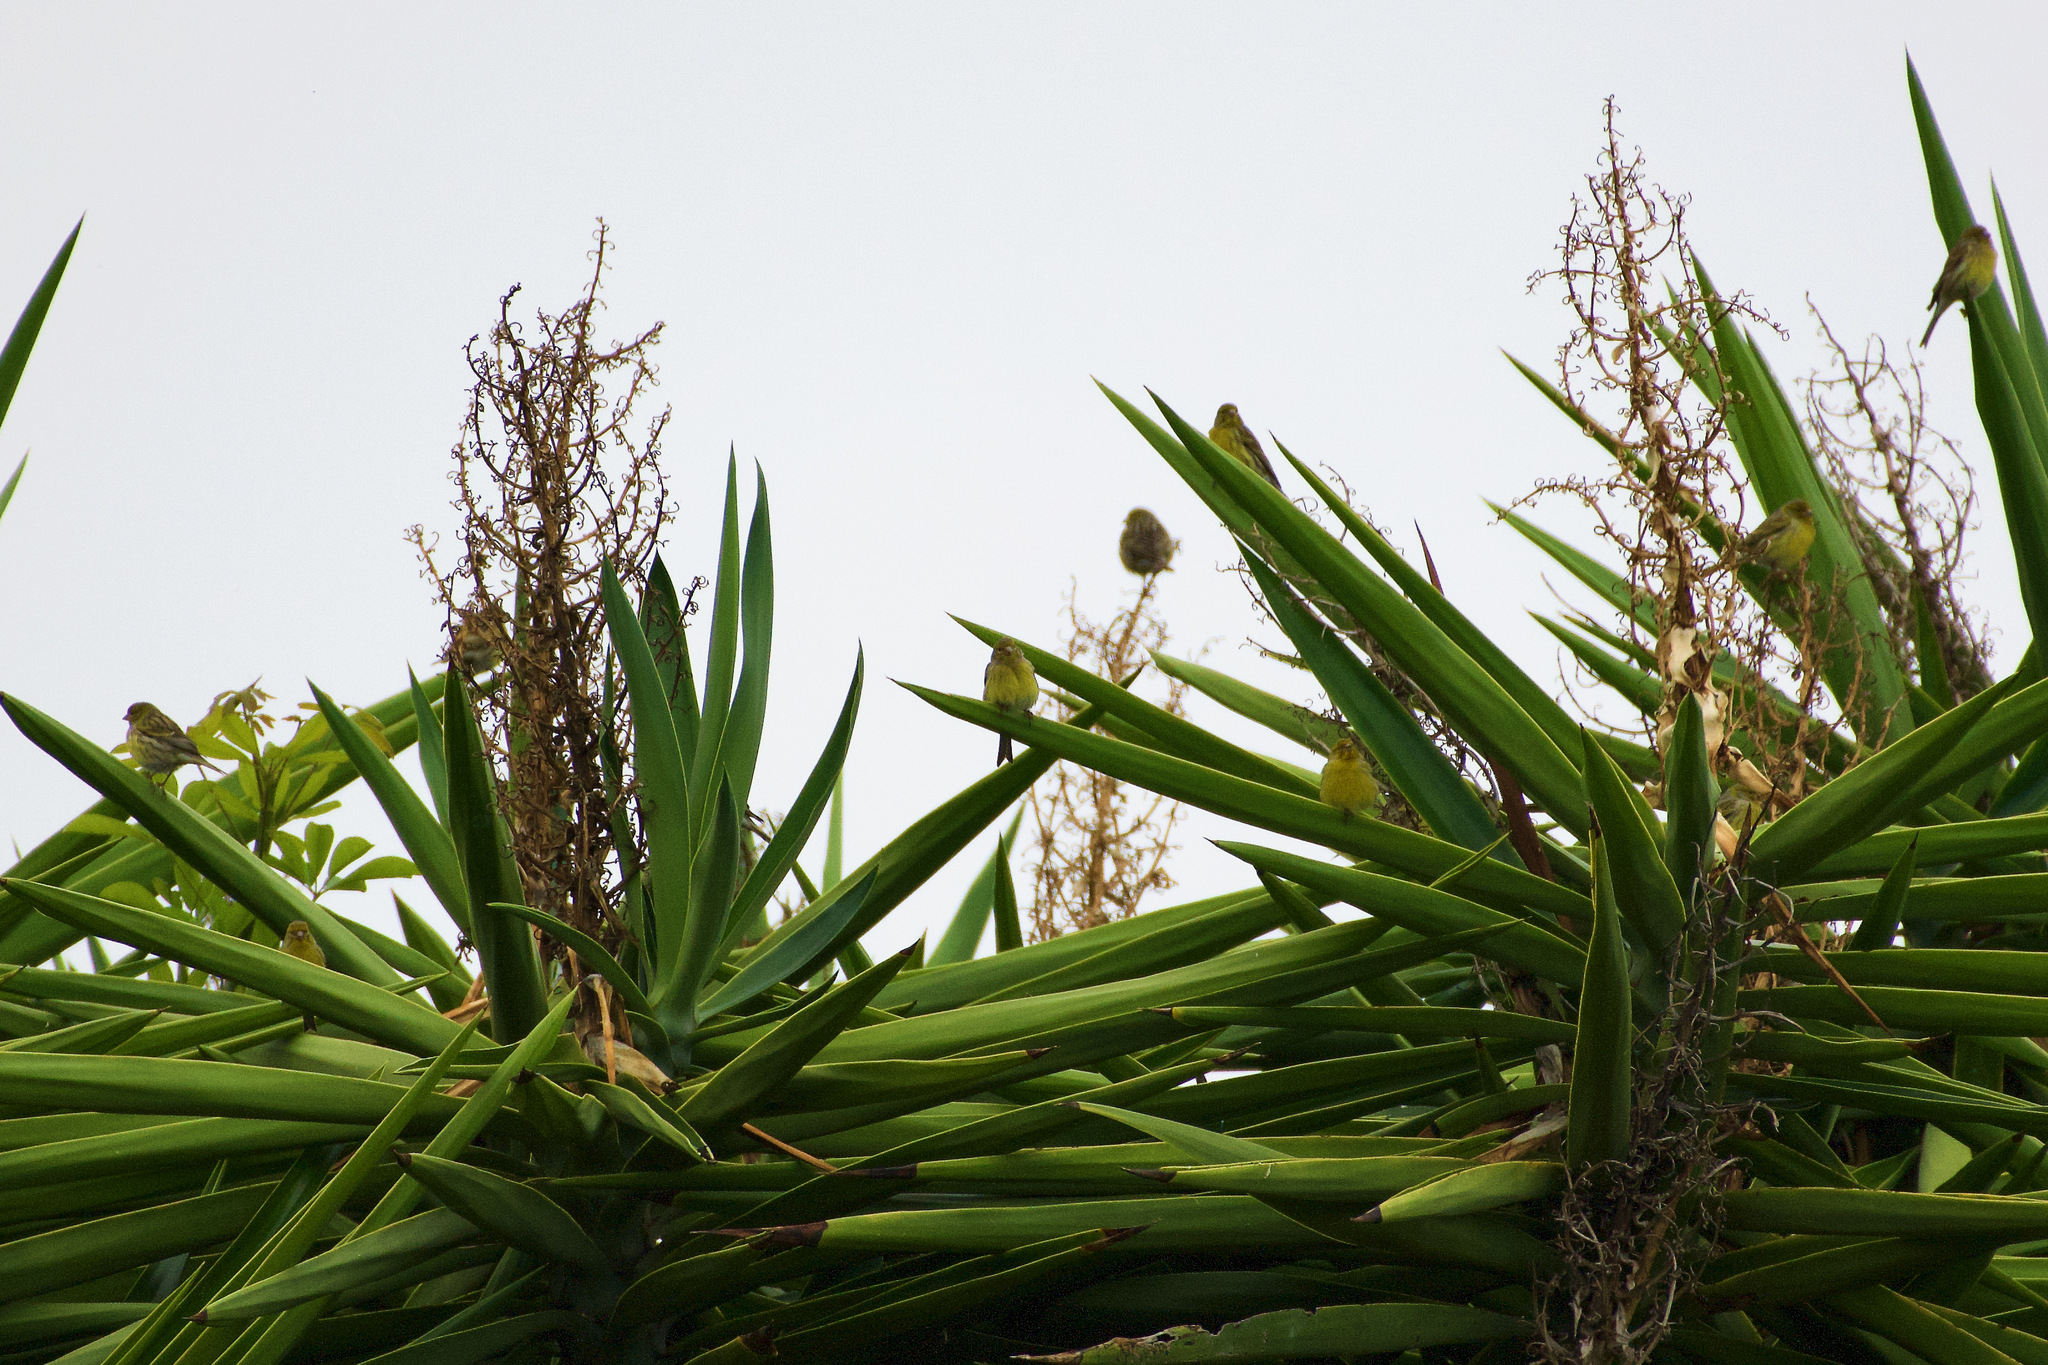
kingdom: Animalia
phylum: Chordata
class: Aves
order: Passeriformes
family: Fringillidae
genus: Serinus
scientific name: Serinus canaria
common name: Atlantic canary
